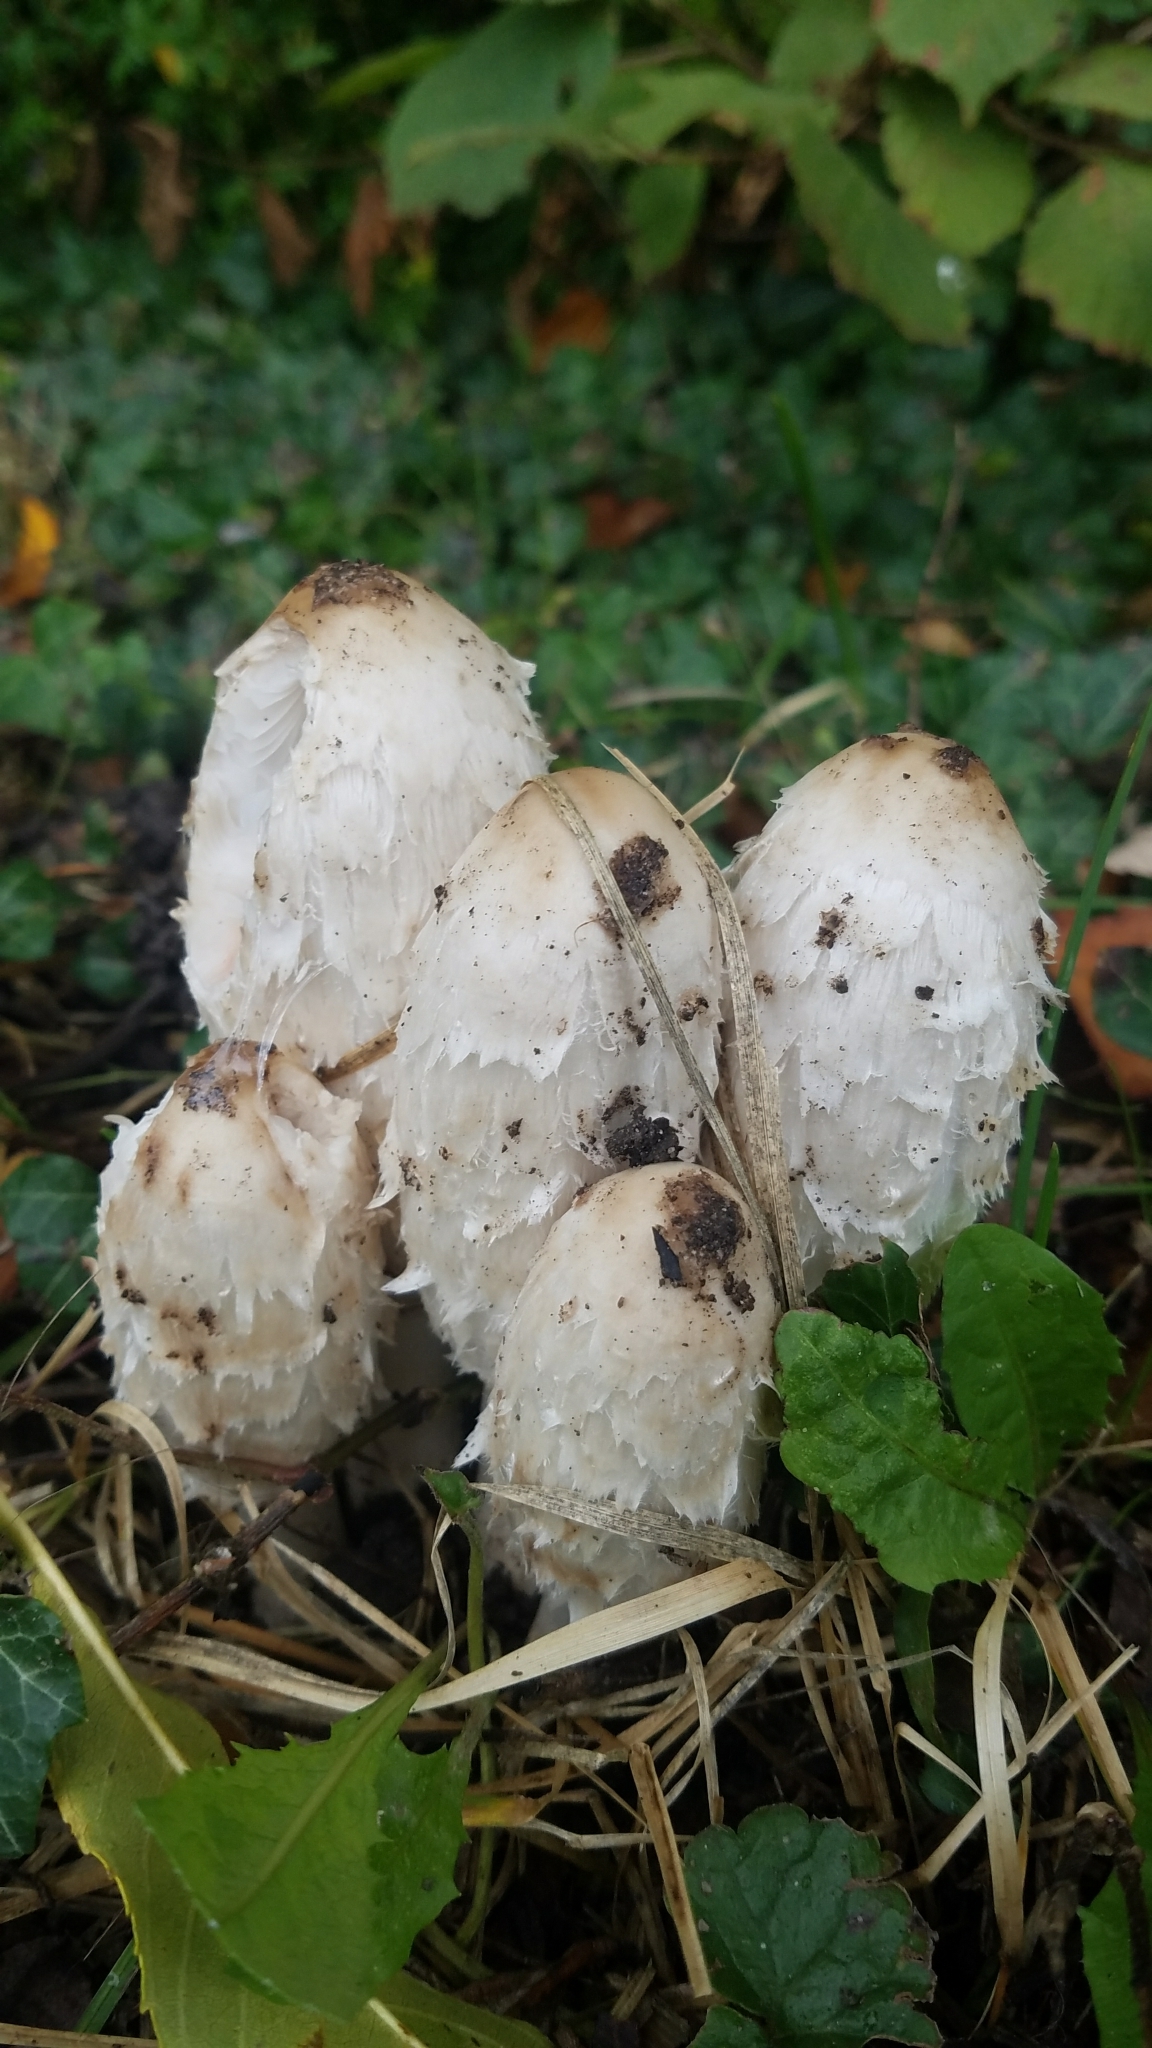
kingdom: Fungi
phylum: Basidiomycota
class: Agaricomycetes
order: Agaricales
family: Agaricaceae
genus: Coprinus
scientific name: Coprinus comatus
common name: Lawyer's wig
